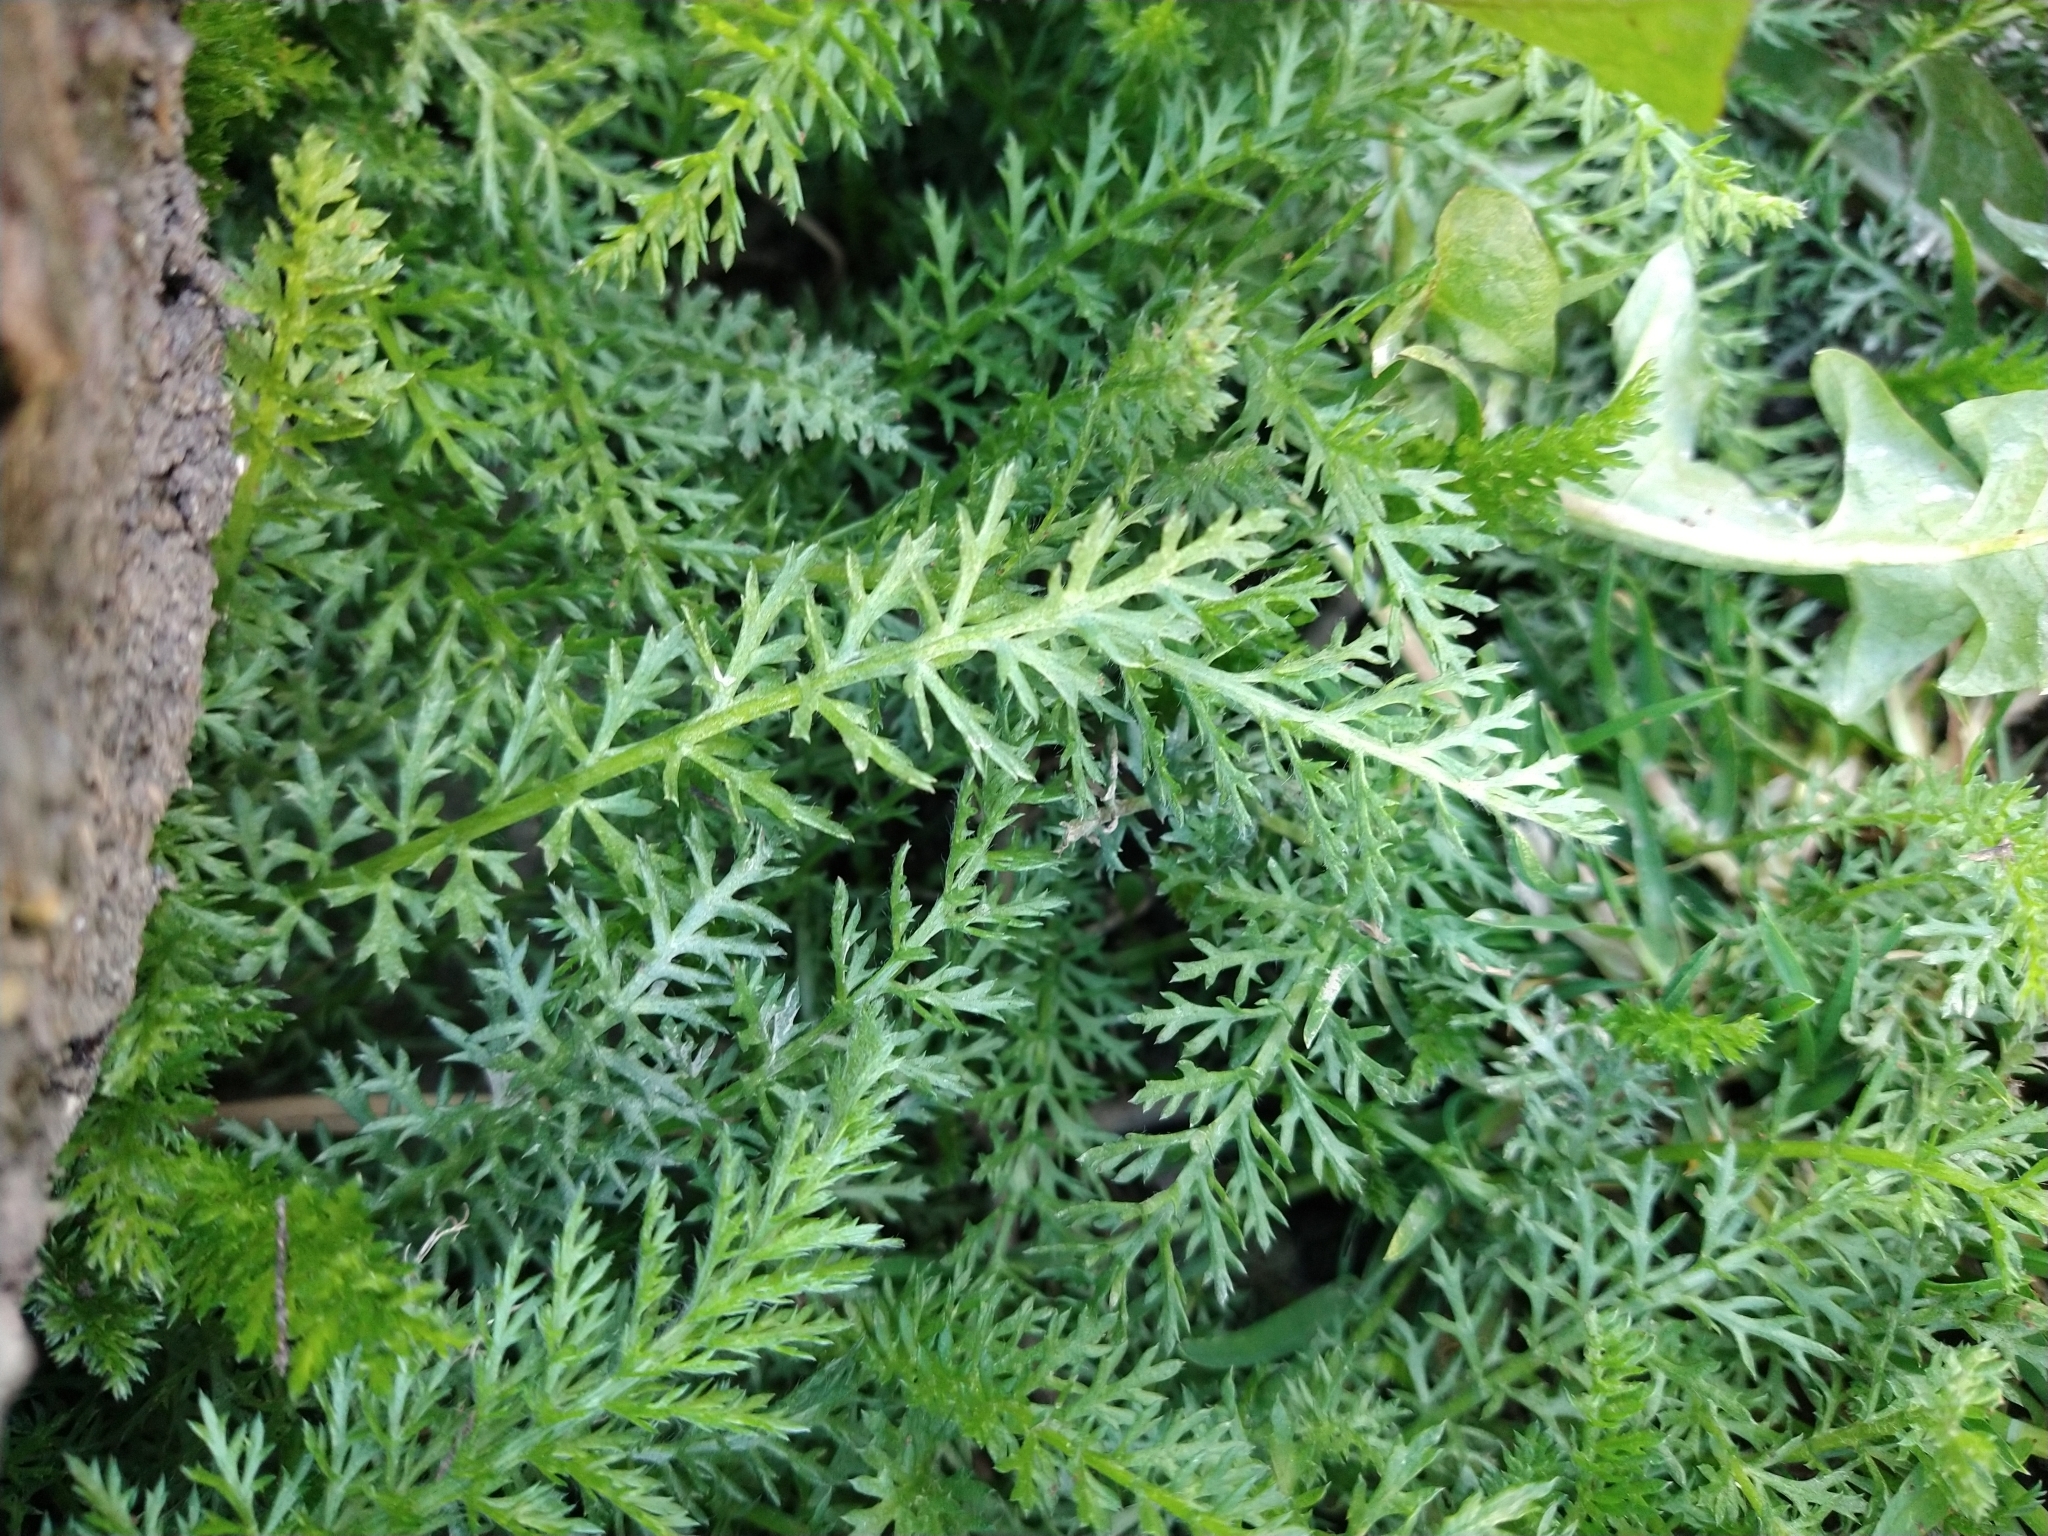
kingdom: Plantae
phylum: Tracheophyta
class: Magnoliopsida
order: Asterales
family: Asteraceae
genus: Achillea
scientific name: Achillea millefolium
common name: Yarrow
